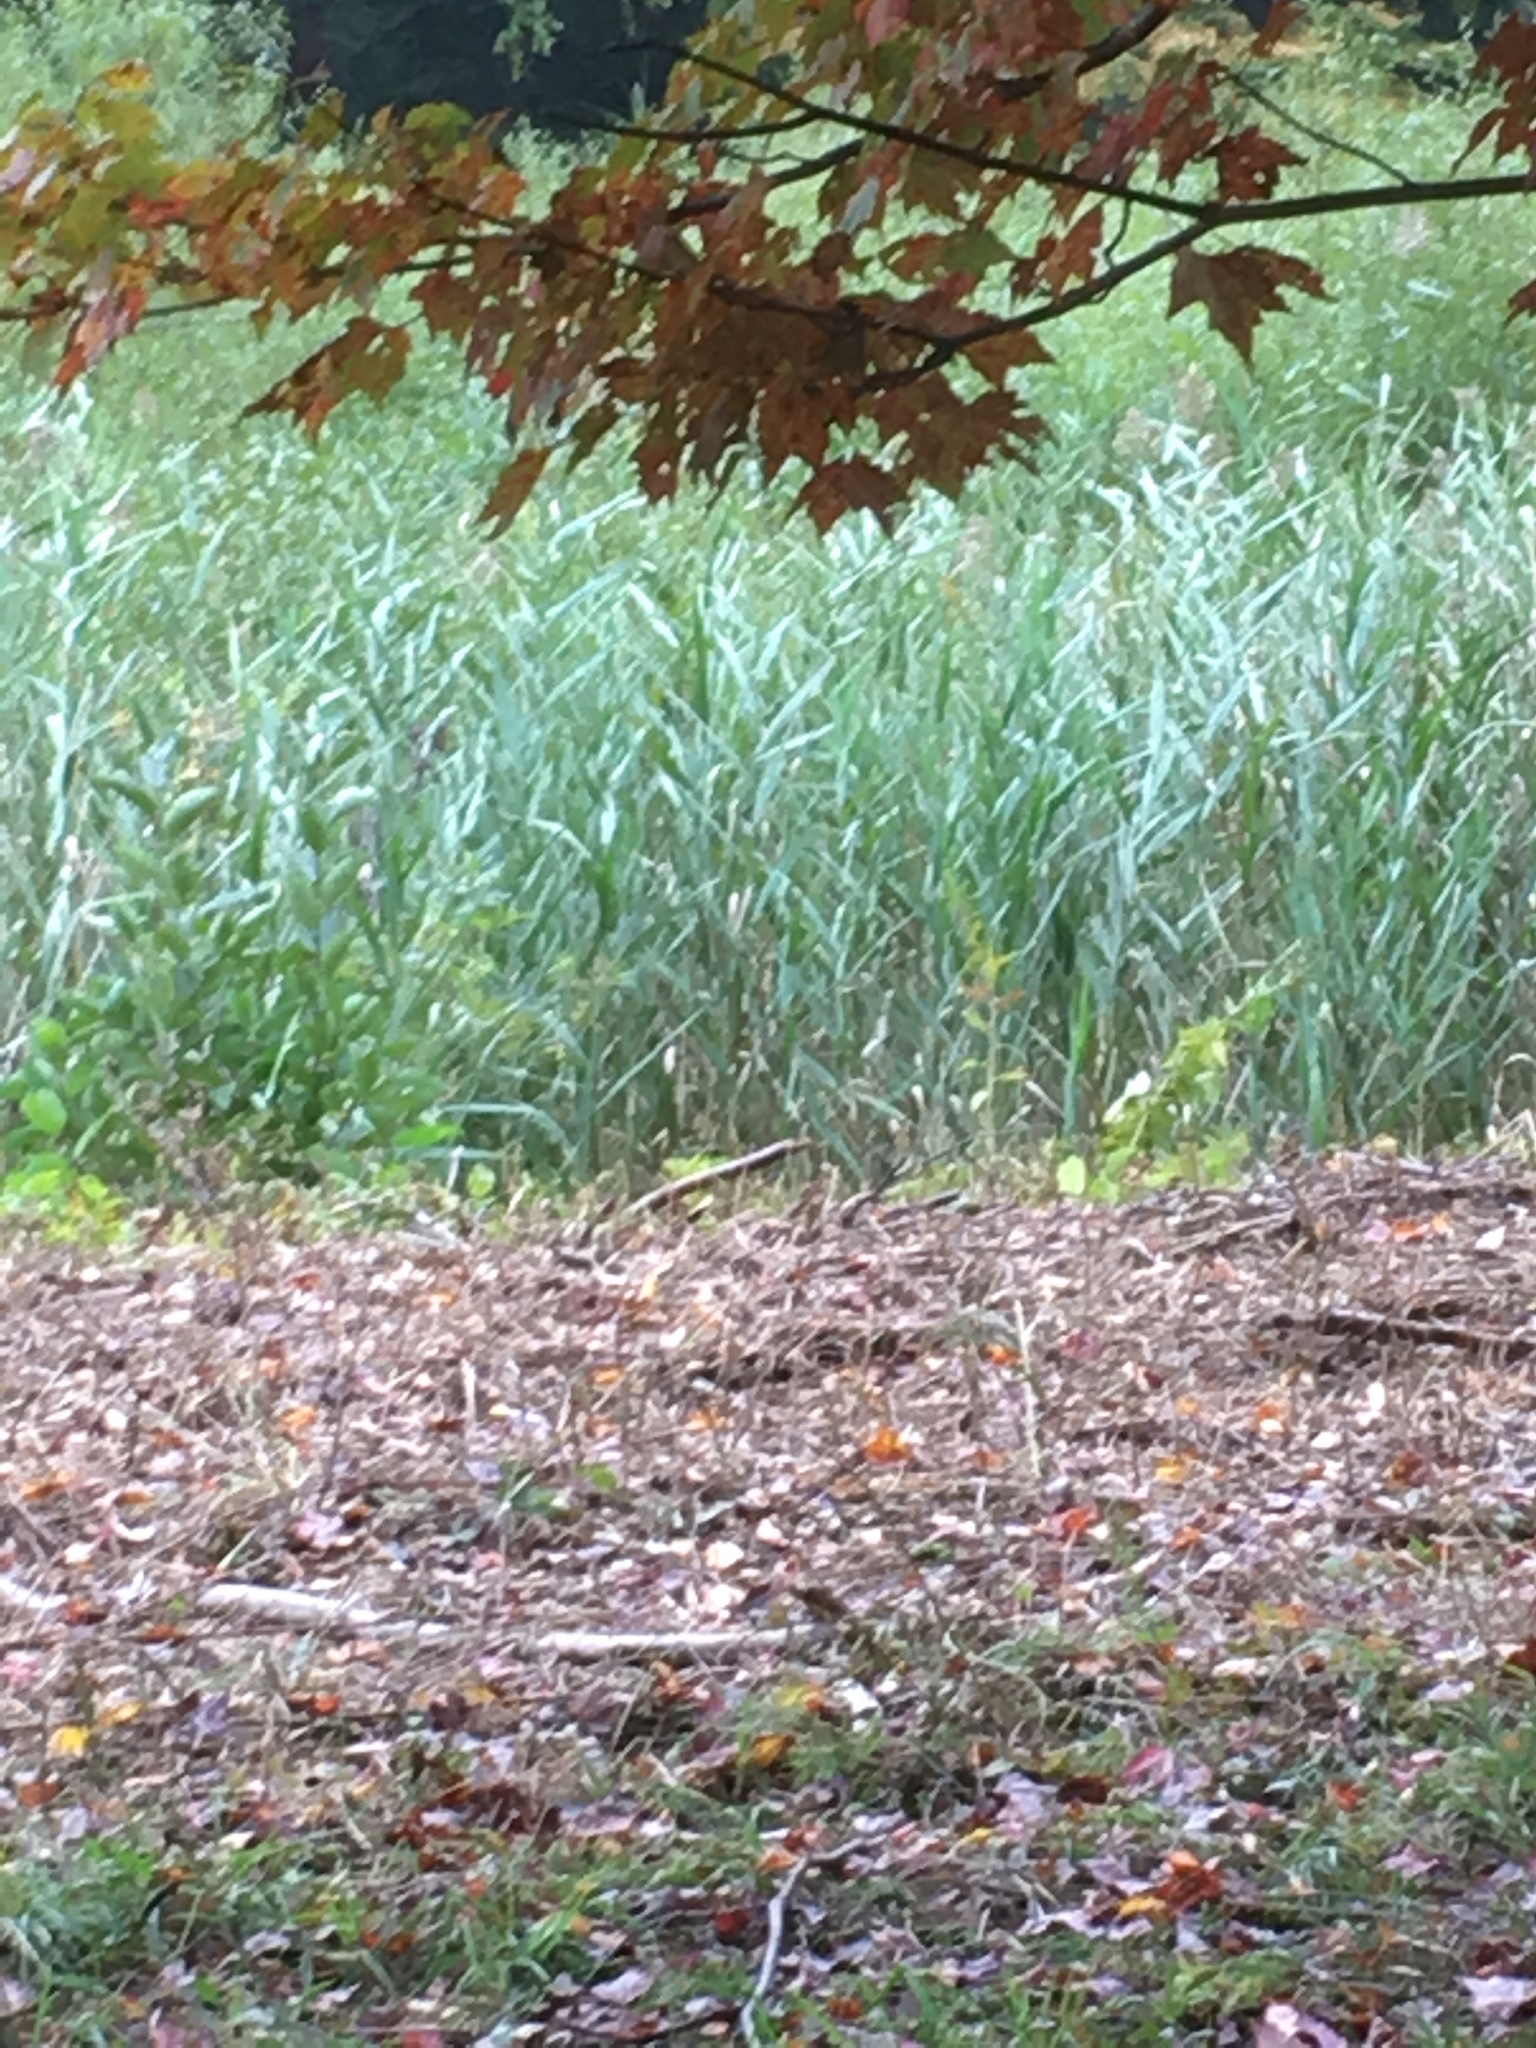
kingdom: Plantae
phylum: Tracheophyta
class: Liliopsida
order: Poales
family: Poaceae
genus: Phragmites
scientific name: Phragmites australis
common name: Common reed
